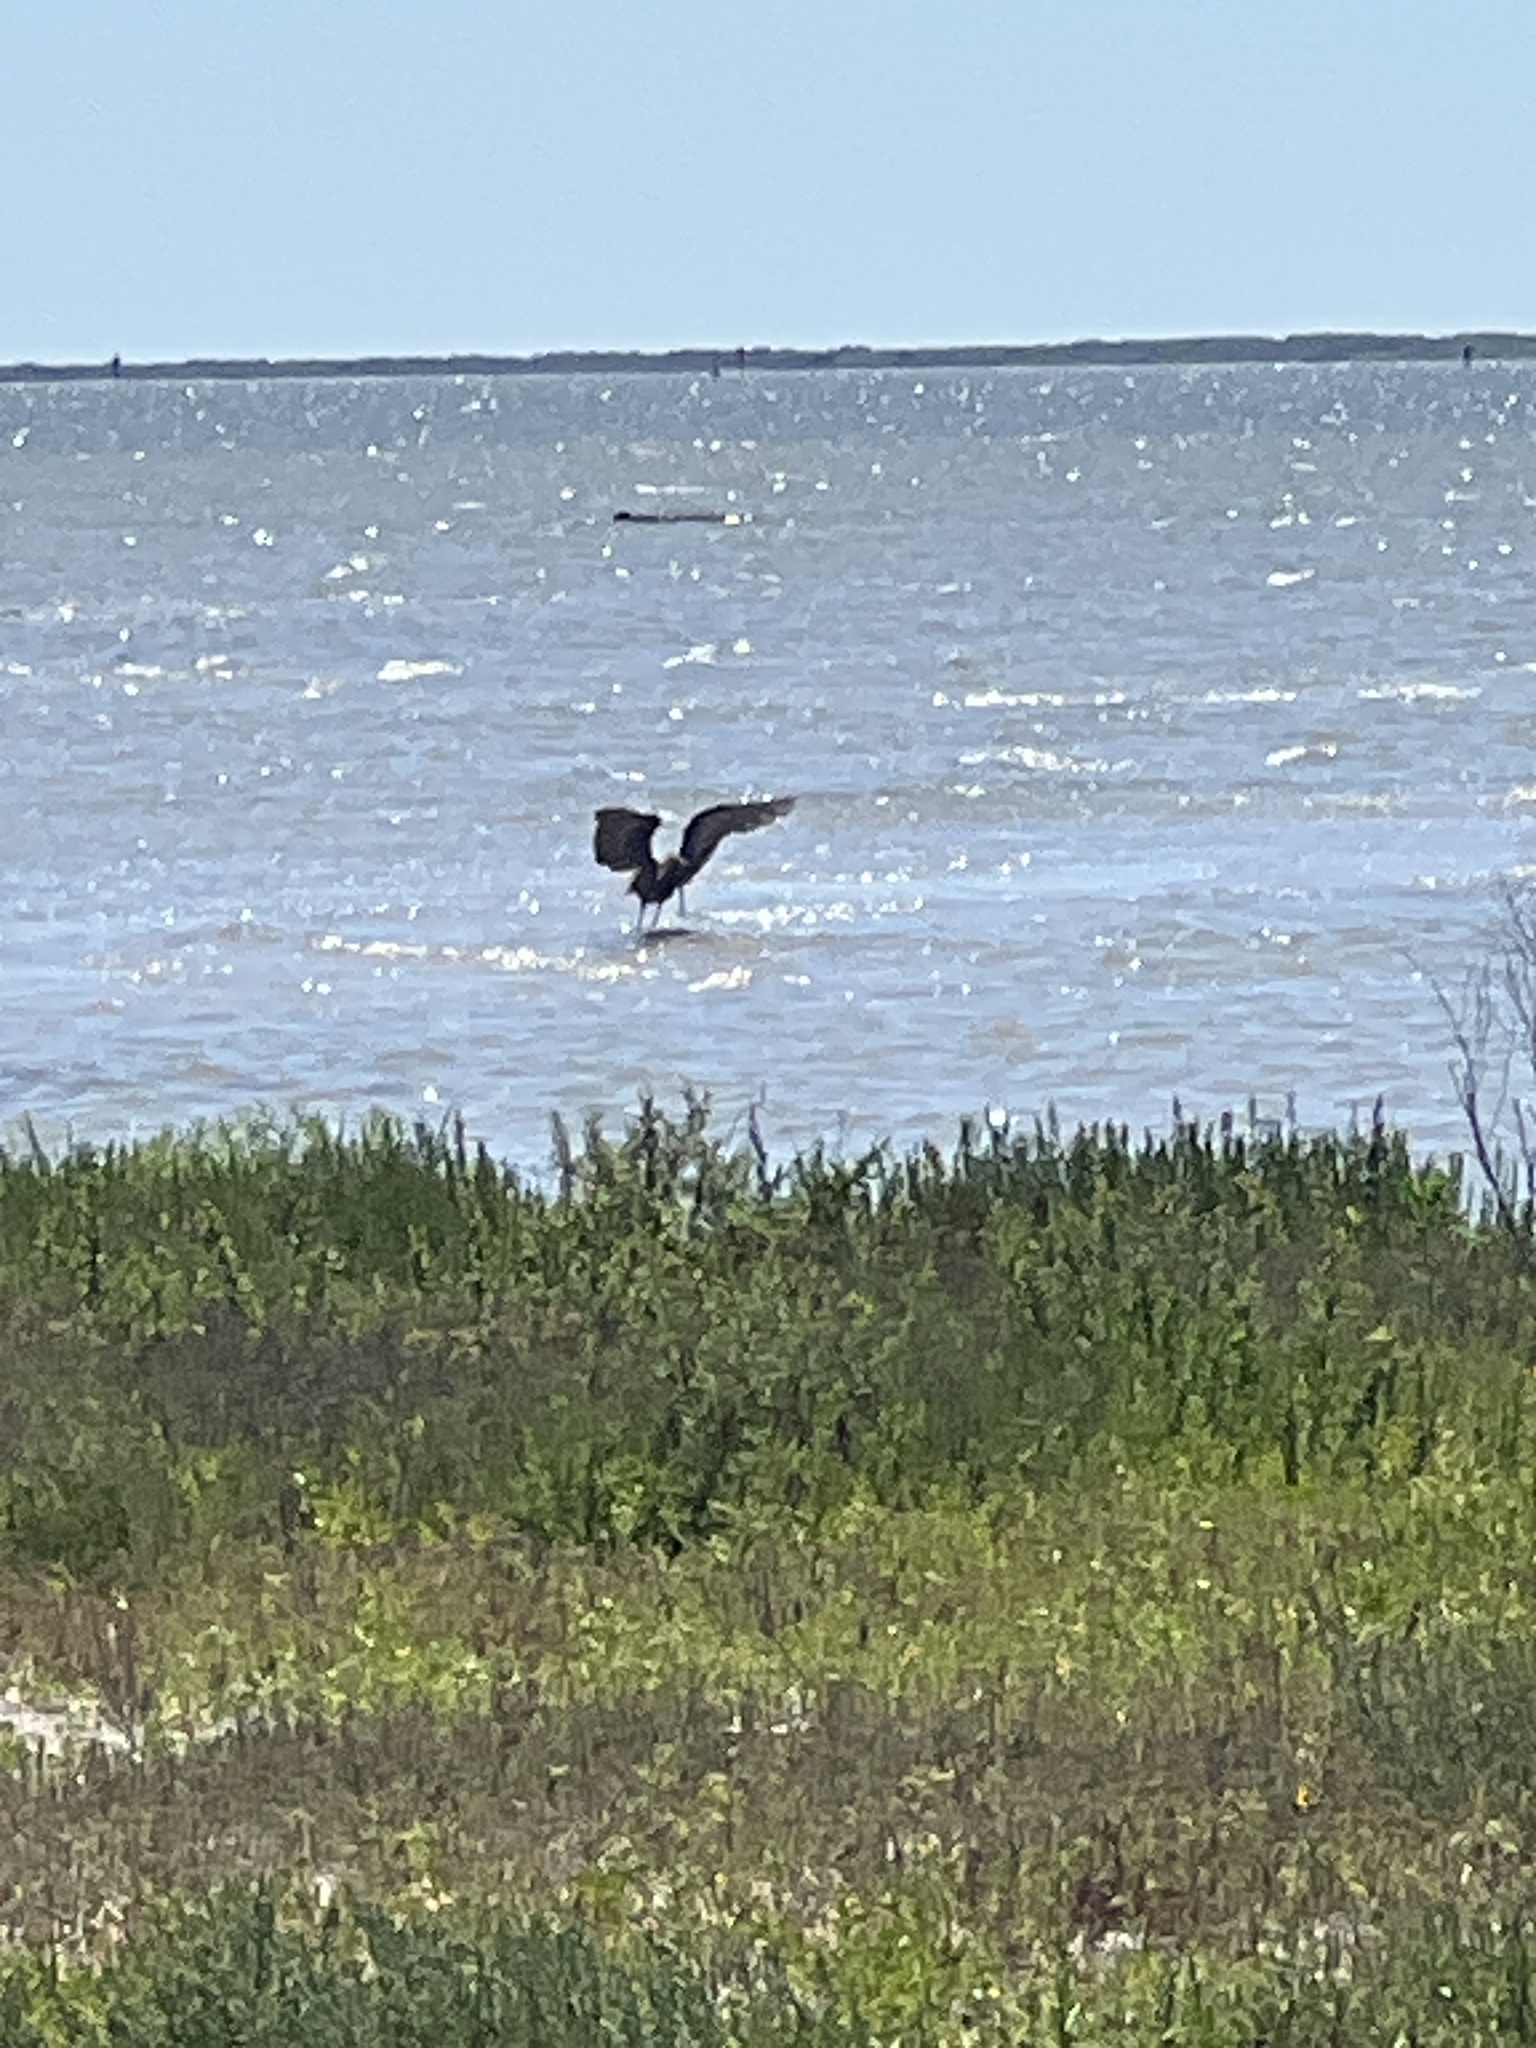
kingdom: Animalia
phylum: Chordata
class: Aves
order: Pelecaniformes
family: Ardeidae
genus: Egretta
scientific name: Egretta rufescens
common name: Reddish egret
